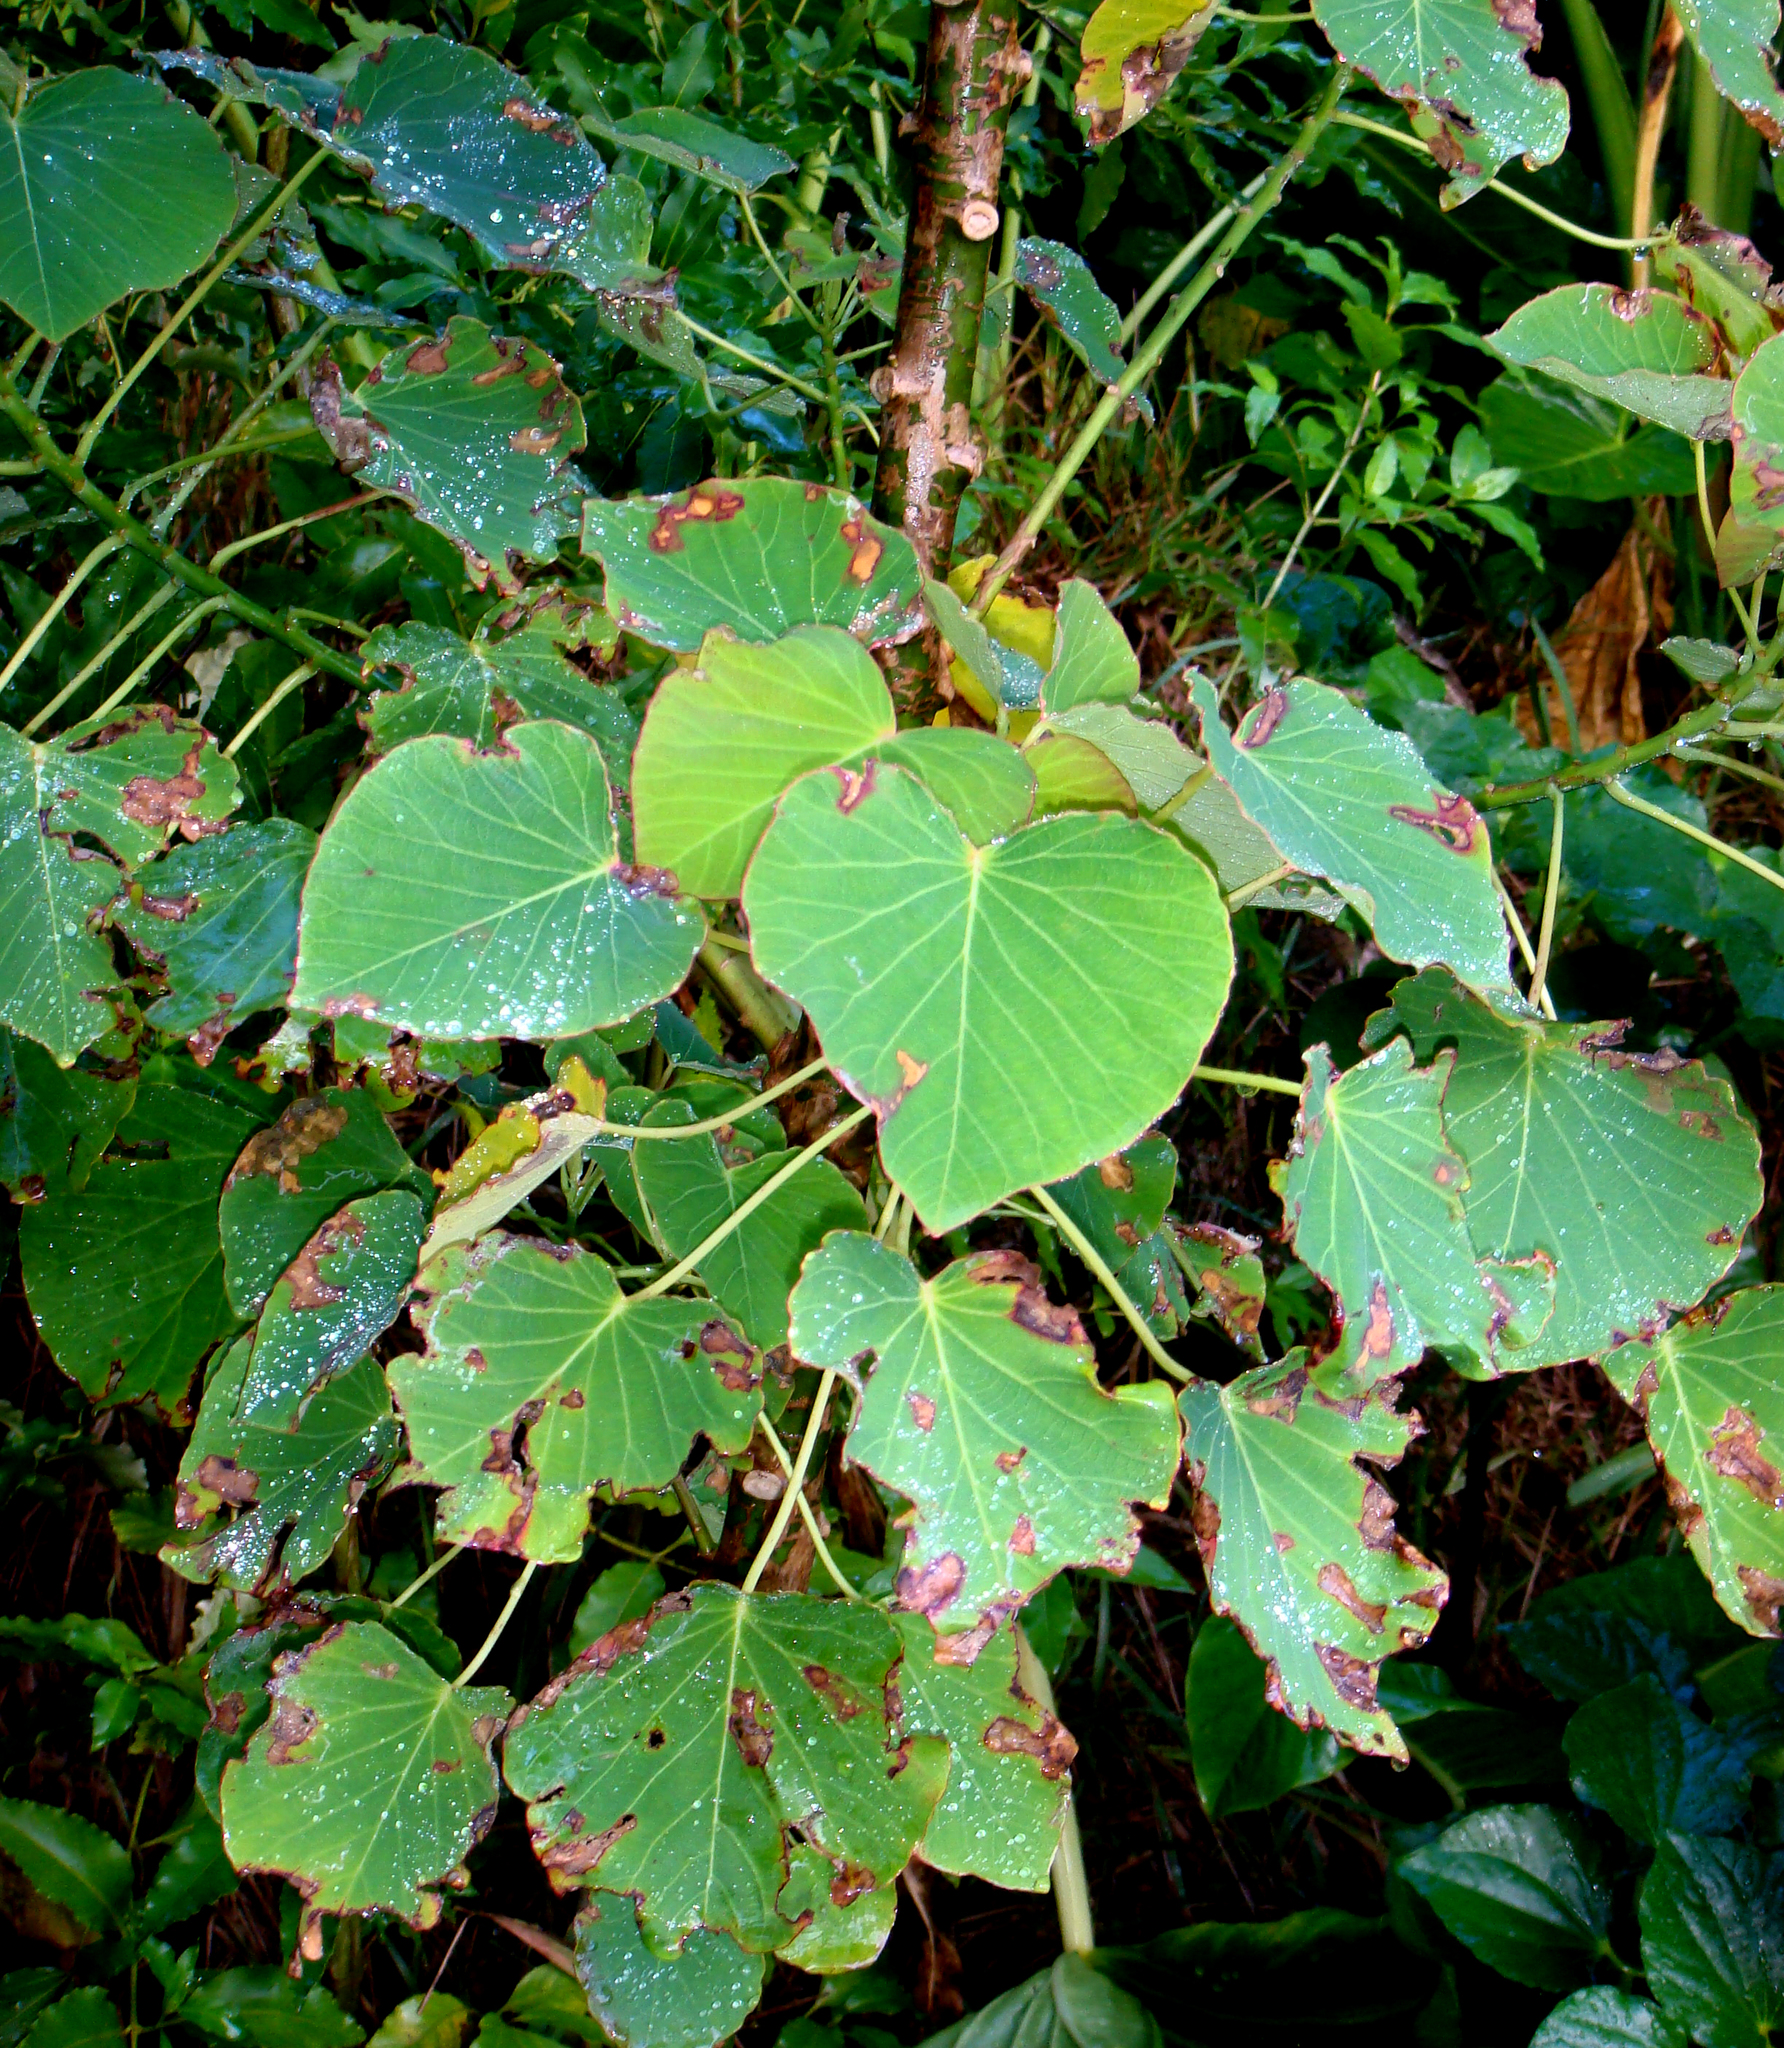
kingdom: Plantae
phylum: Tracheophyta
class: Magnoliopsida
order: Malpighiales
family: Euphorbiaceae
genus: Homalanthus
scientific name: Homalanthus polyandrus
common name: Kermadec poplar
